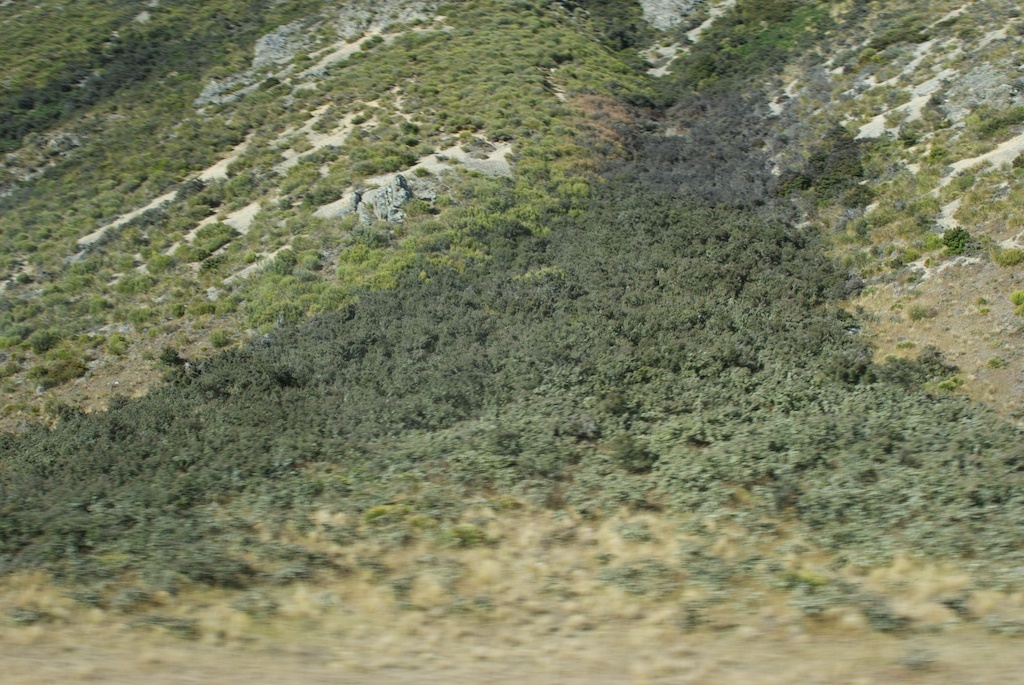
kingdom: Plantae
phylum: Tracheophyta
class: Magnoliopsida
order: Rosales
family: Rhamnaceae
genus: Discaria
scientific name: Discaria toumatou
